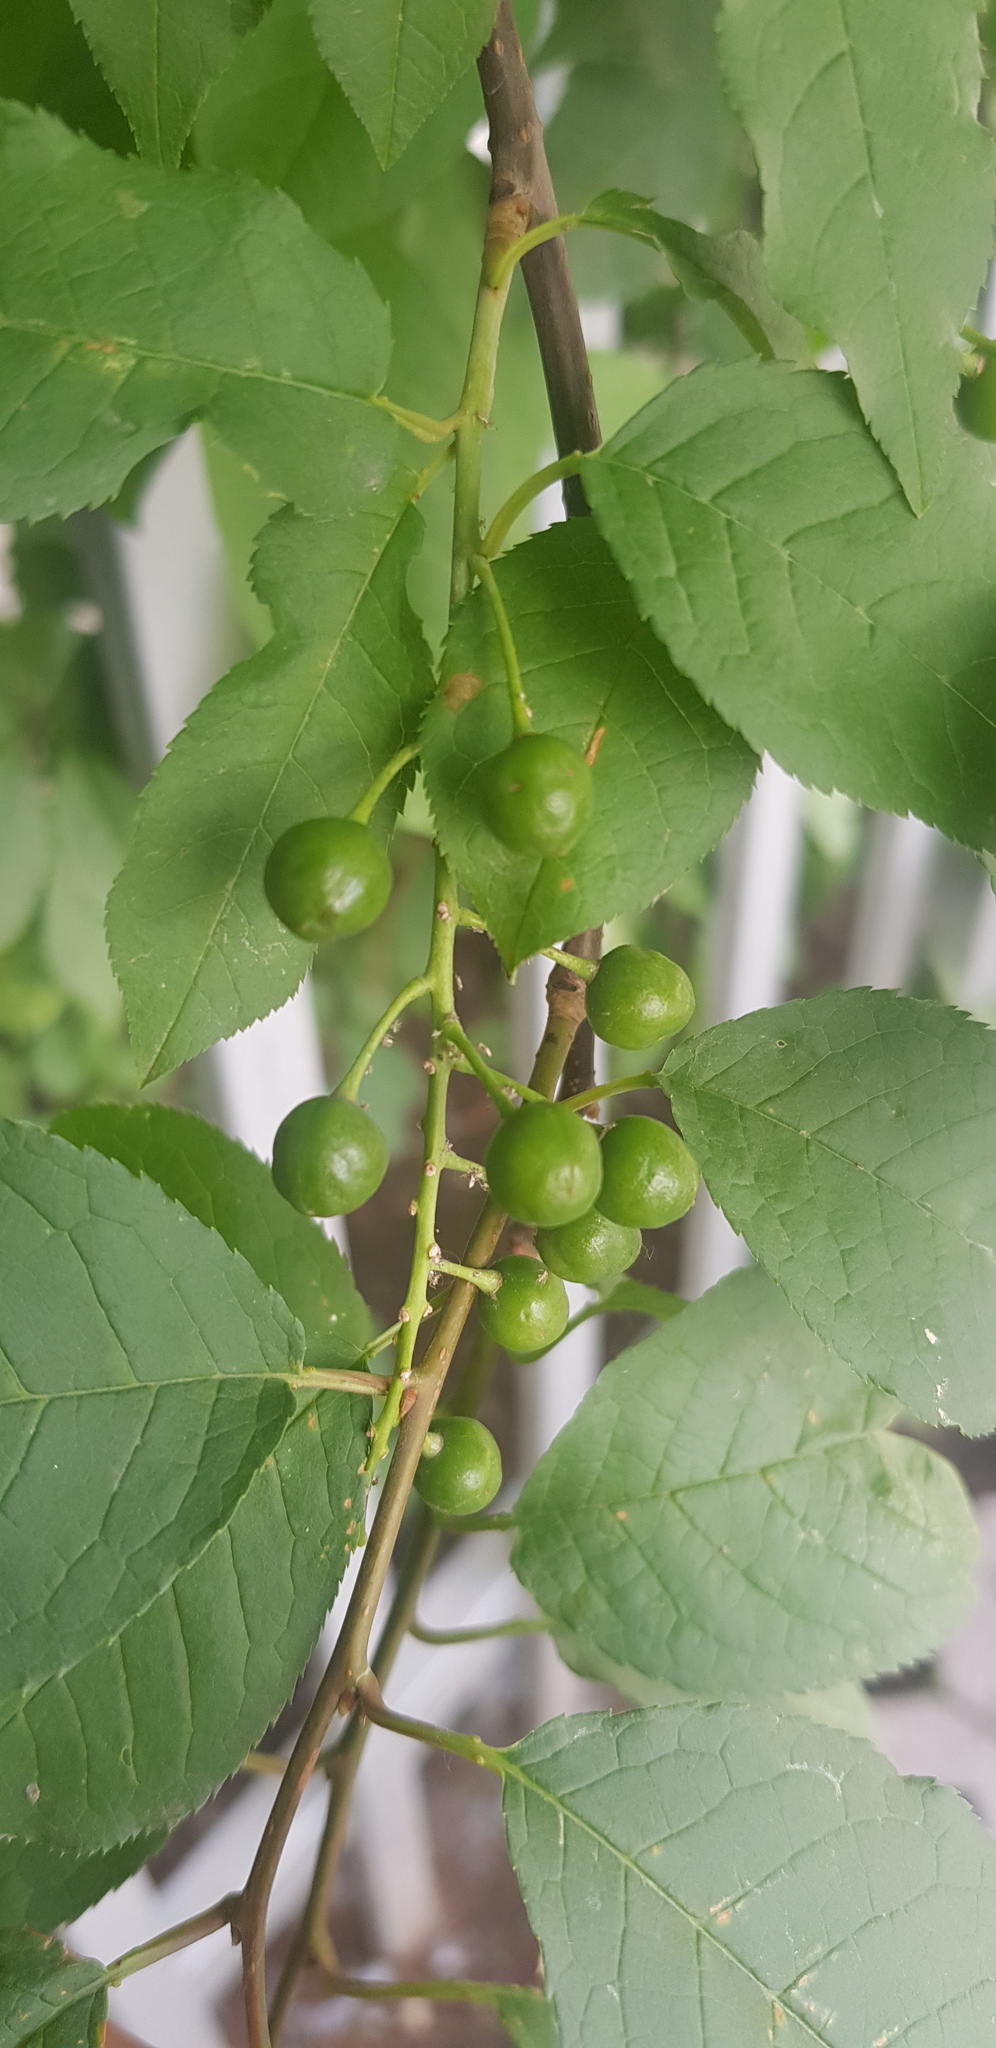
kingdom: Plantae
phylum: Tracheophyta
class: Magnoliopsida
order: Rosales
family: Rosaceae
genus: Prunus
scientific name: Prunus padus
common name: Bird cherry
